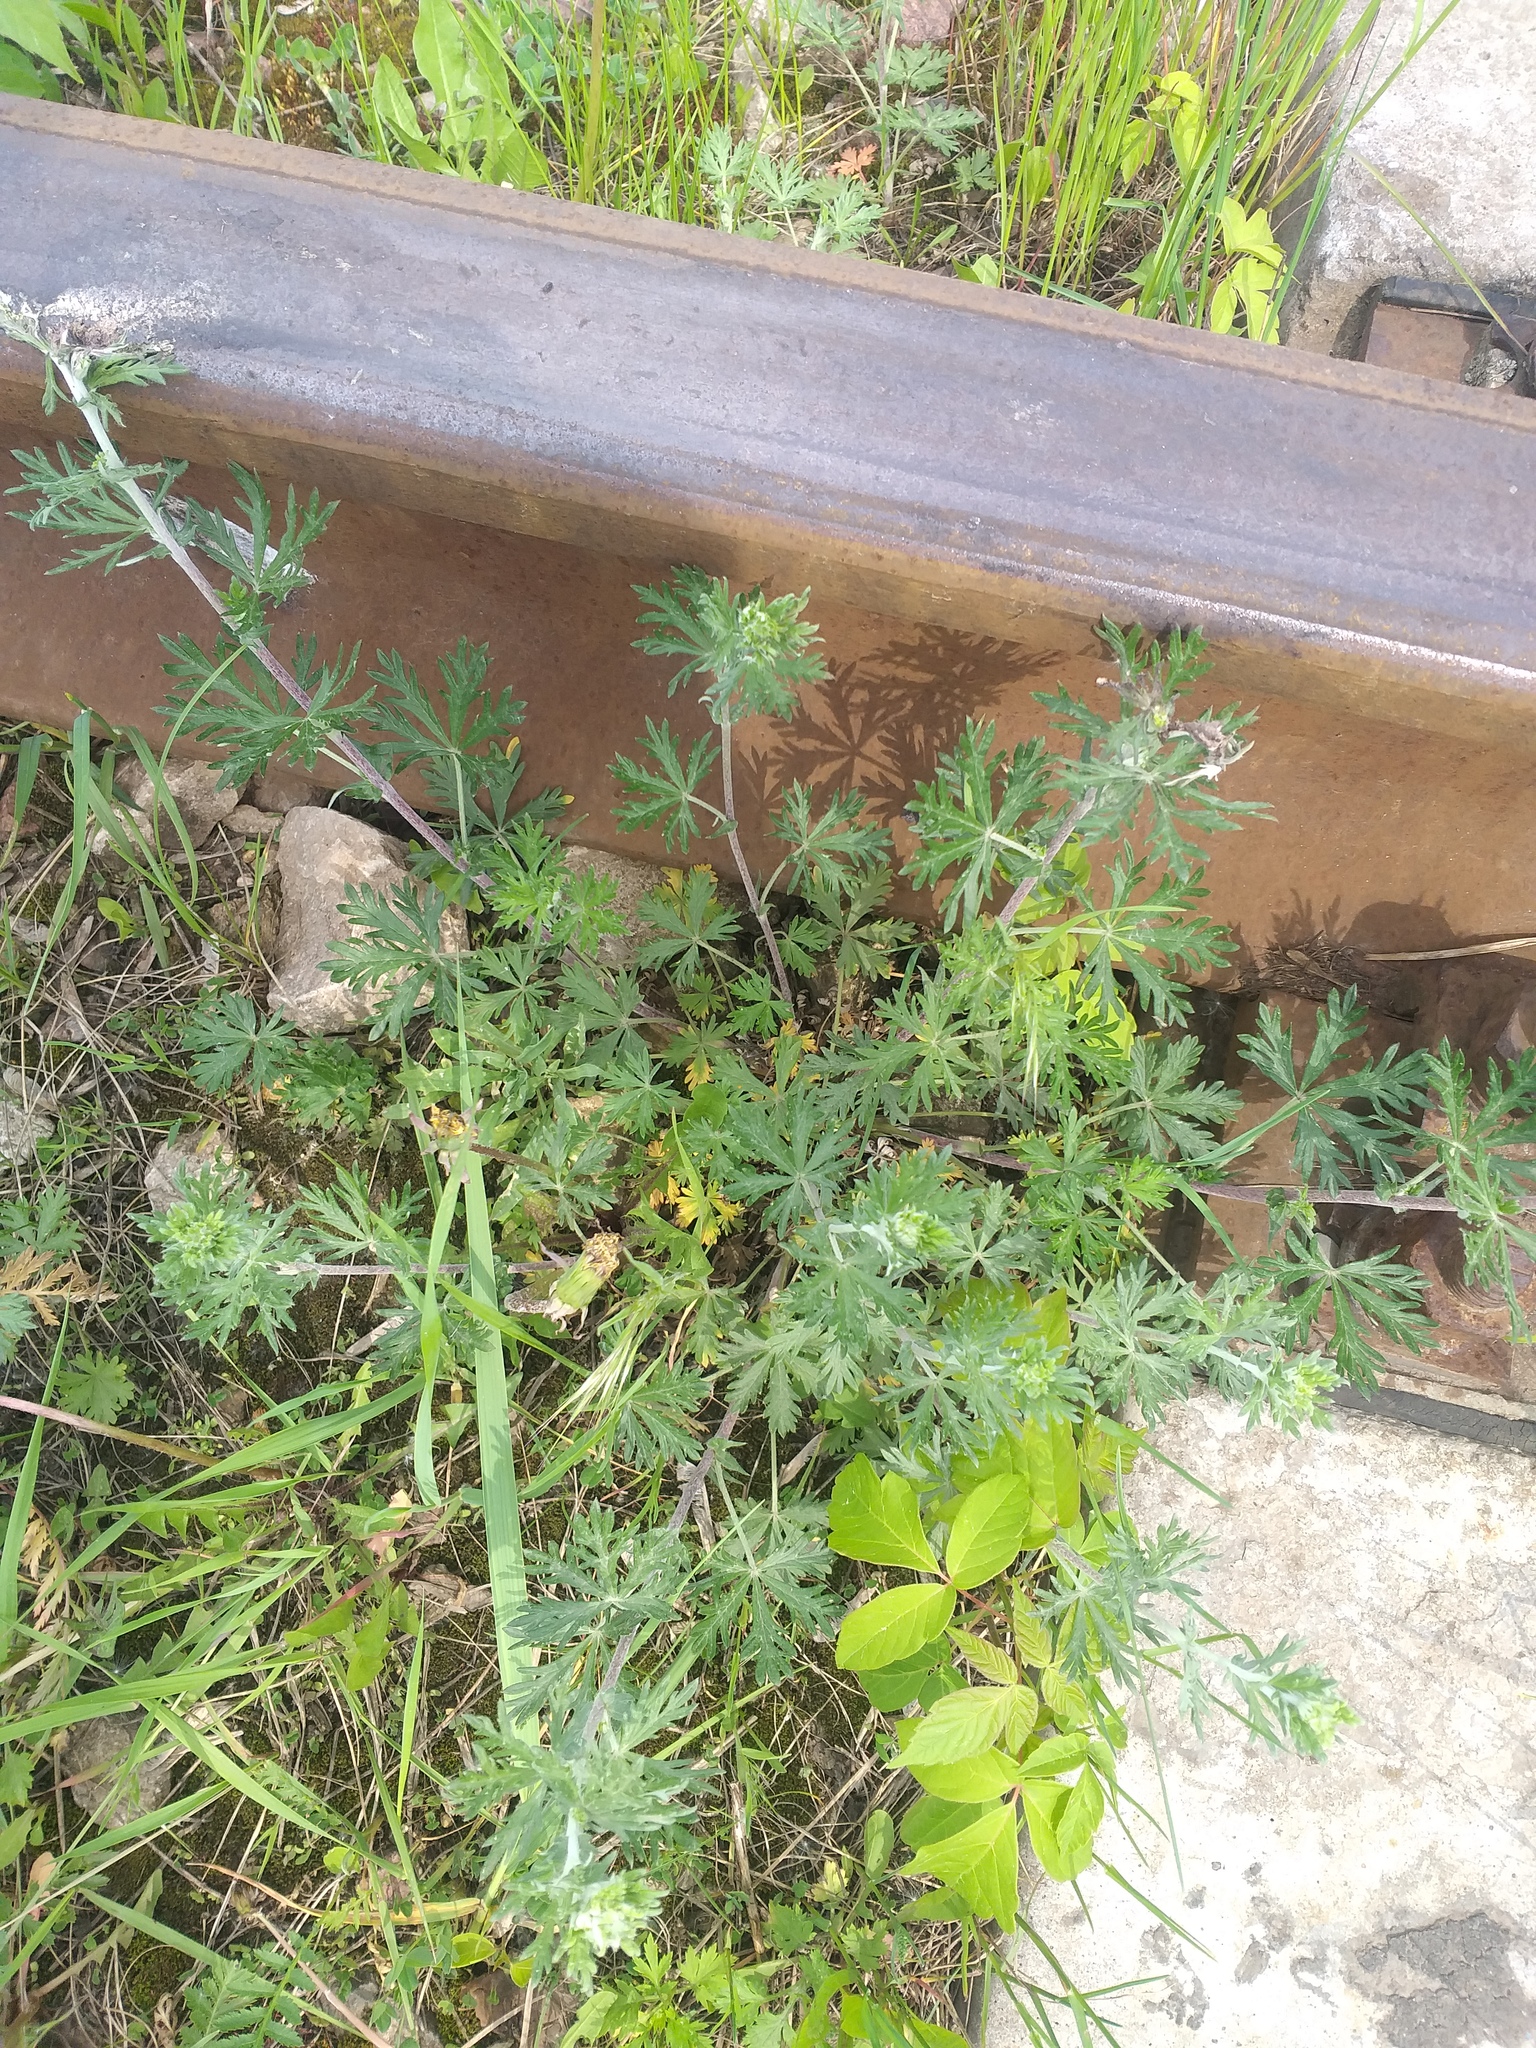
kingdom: Plantae
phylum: Tracheophyta
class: Magnoliopsida
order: Rosales
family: Rosaceae
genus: Potentilla
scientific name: Potentilla argentea
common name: Hoary cinquefoil
